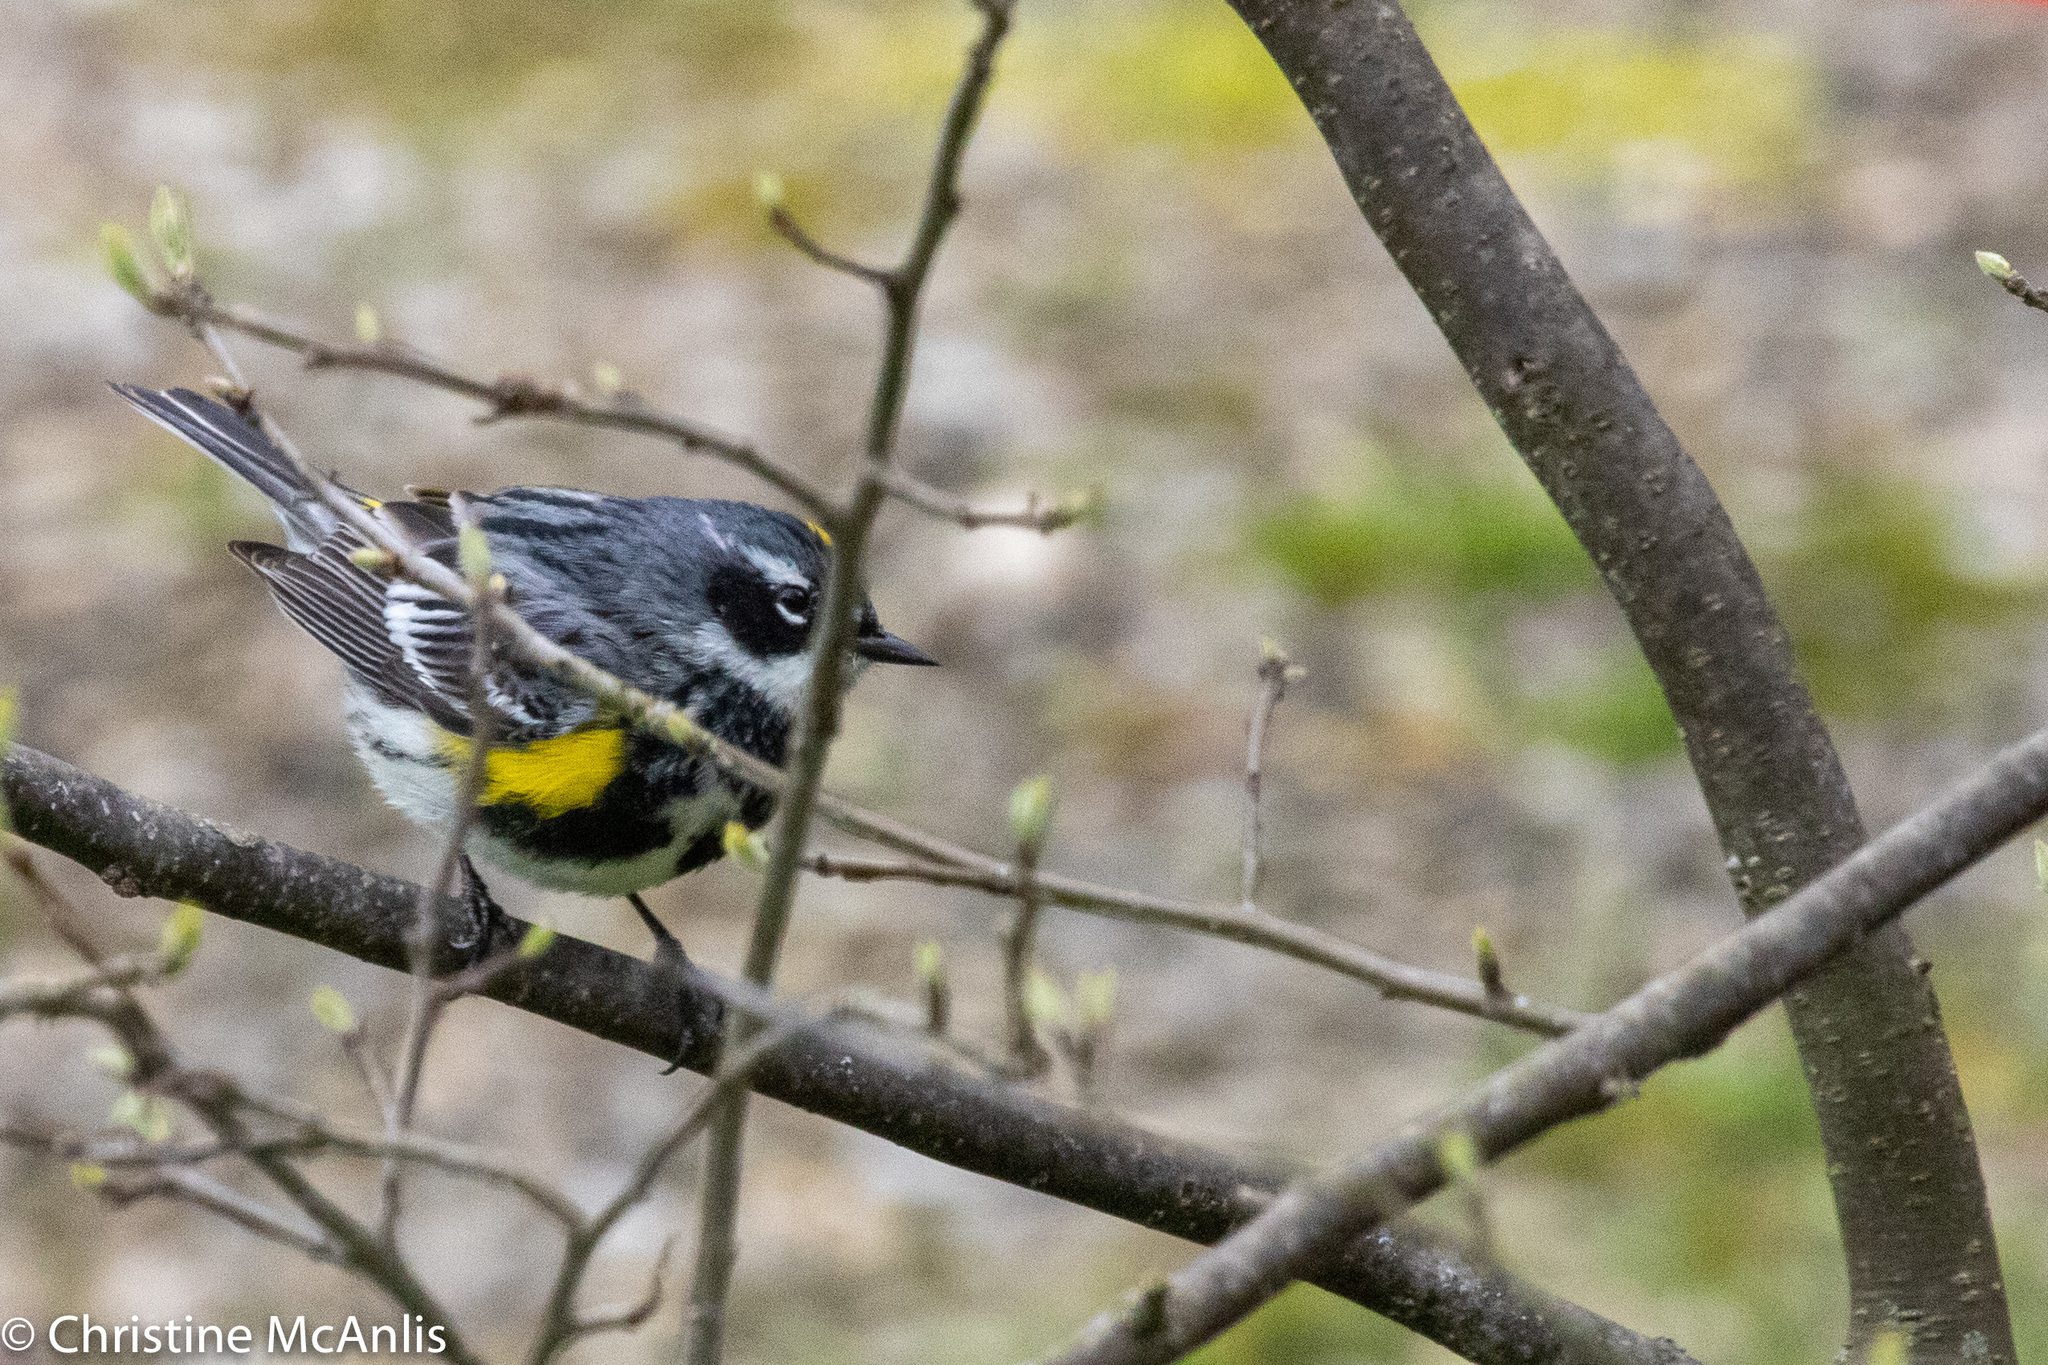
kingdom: Animalia
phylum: Chordata
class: Aves
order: Passeriformes
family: Parulidae
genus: Setophaga
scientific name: Setophaga coronata
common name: Myrtle warbler
